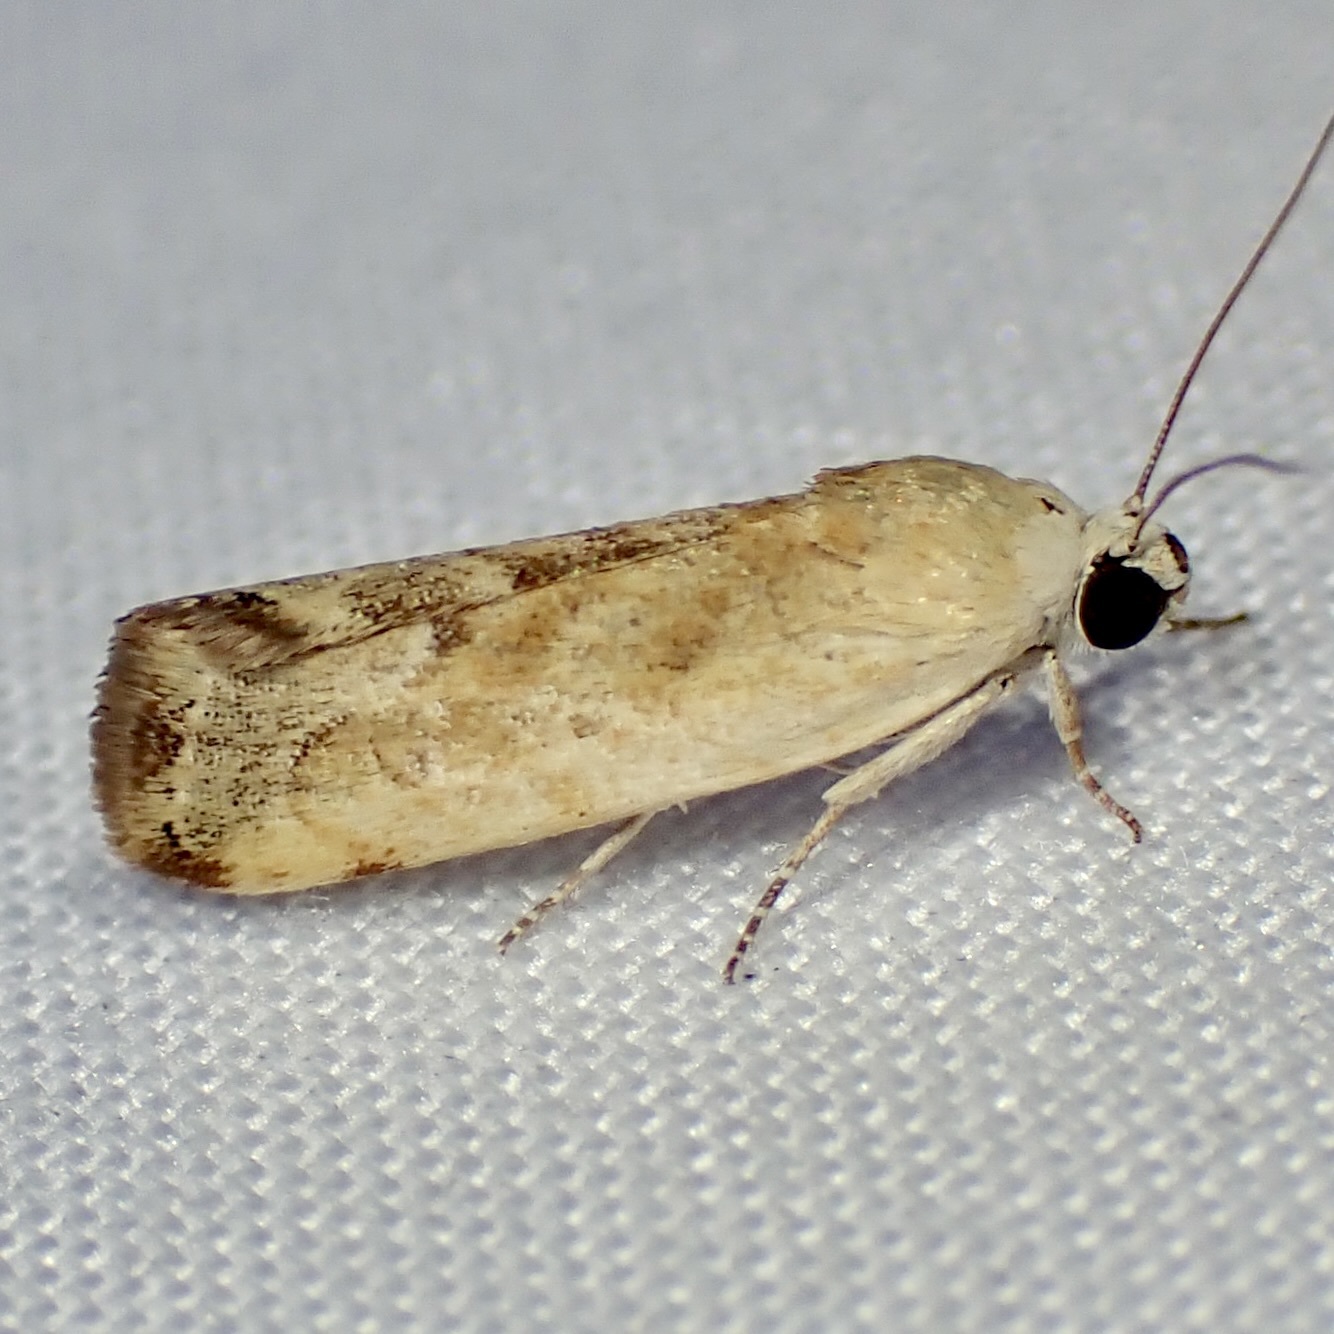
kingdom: Animalia
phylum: Arthropoda
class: Insecta
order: Lepidoptera
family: Noctuidae
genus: Acontia
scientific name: Acontia fasciatella
